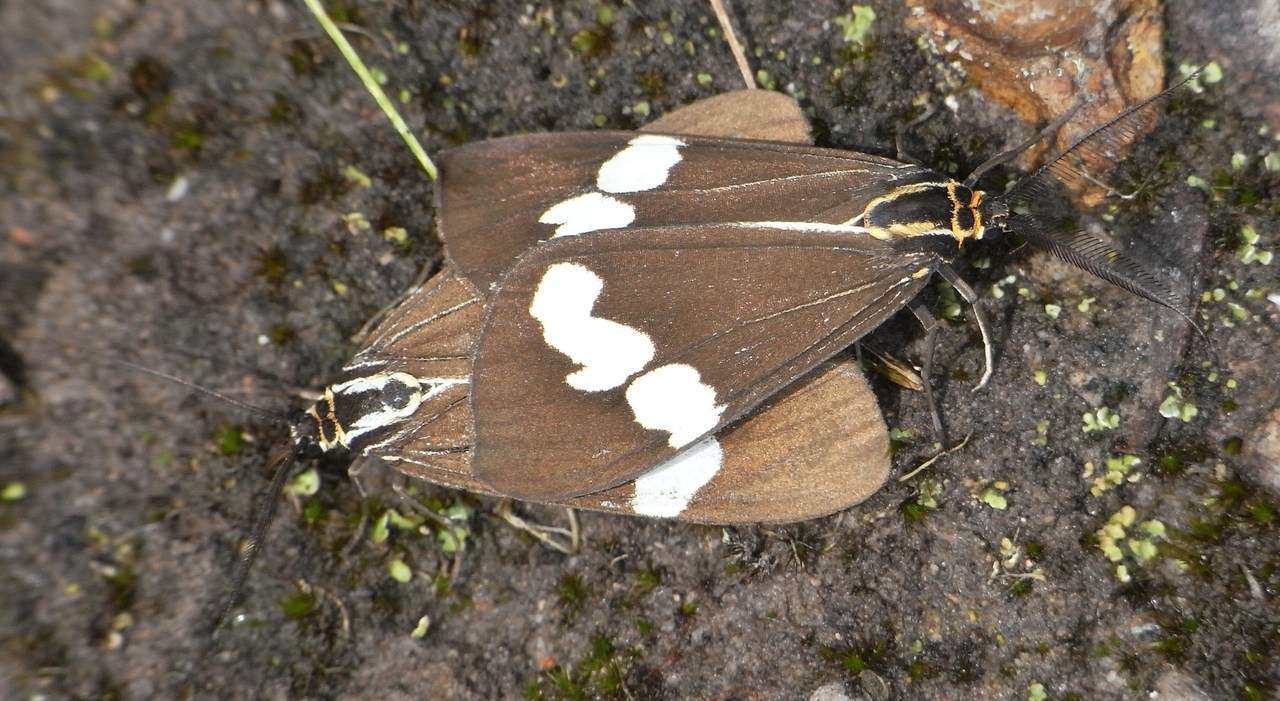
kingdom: Animalia
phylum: Arthropoda
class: Insecta
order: Lepidoptera
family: Erebidae
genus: Nyctemera
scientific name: Nyctemera amicus
